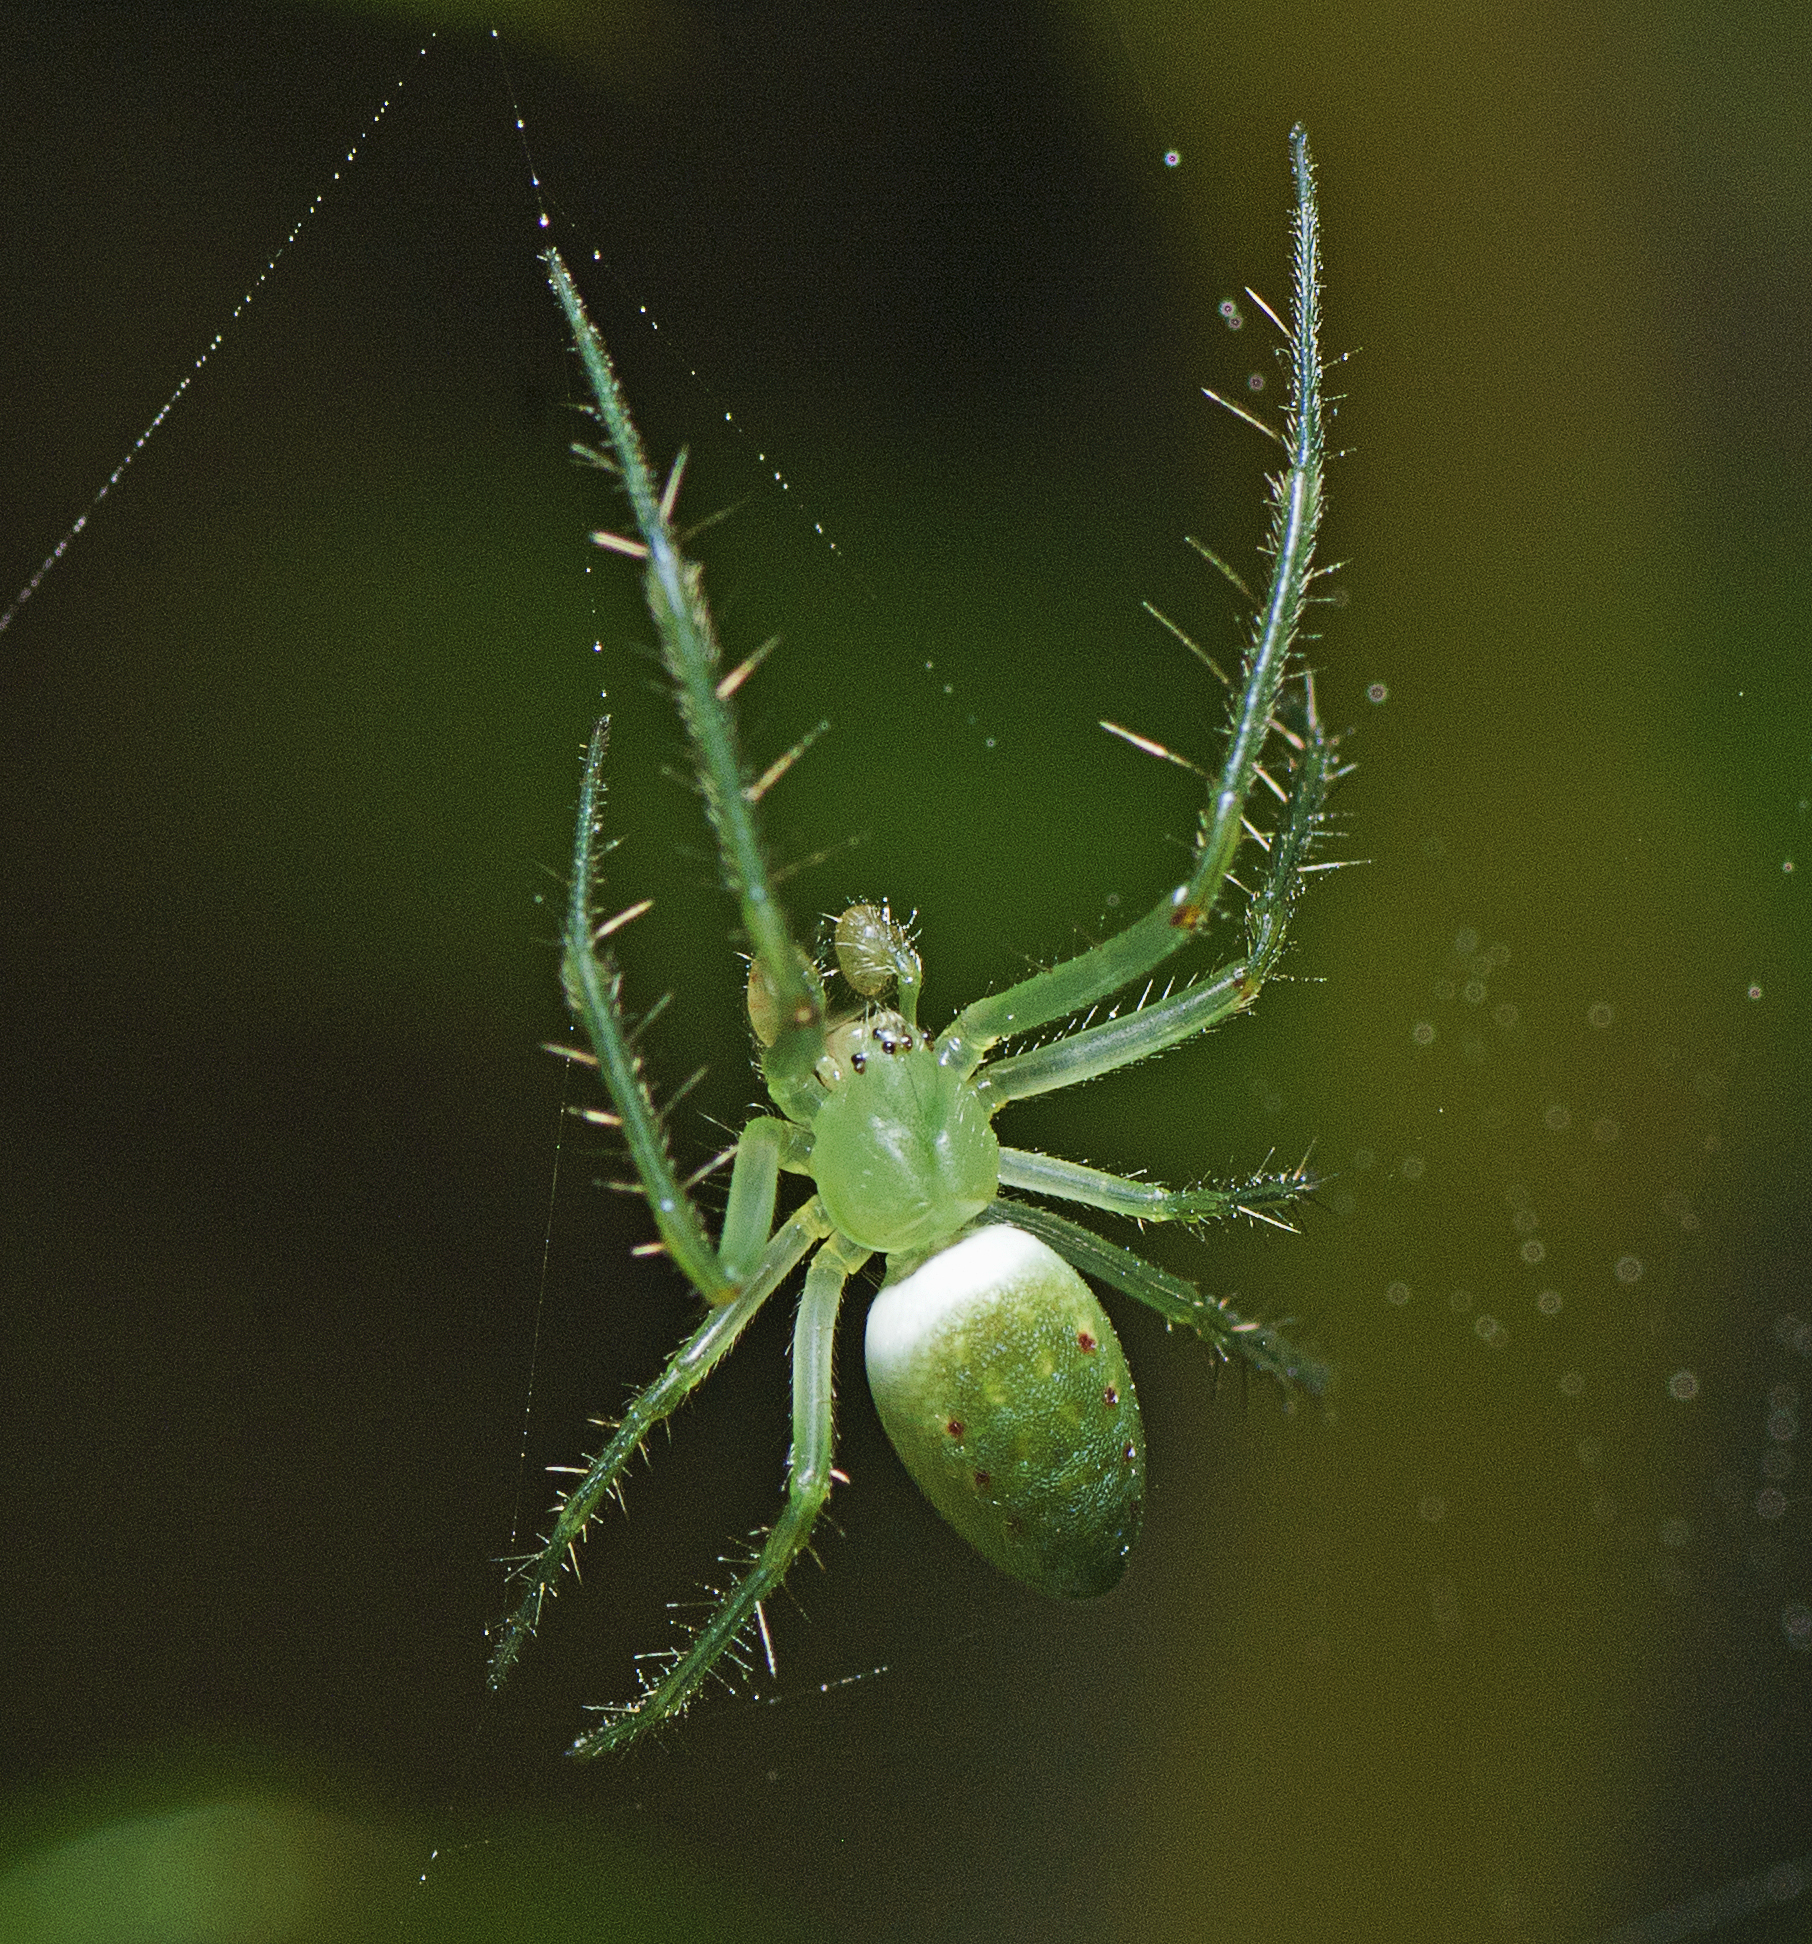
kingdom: Animalia
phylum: Arthropoda
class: Arachnida
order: Araneae
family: Araneidae
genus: Araneus
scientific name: Araneus talipedatus
